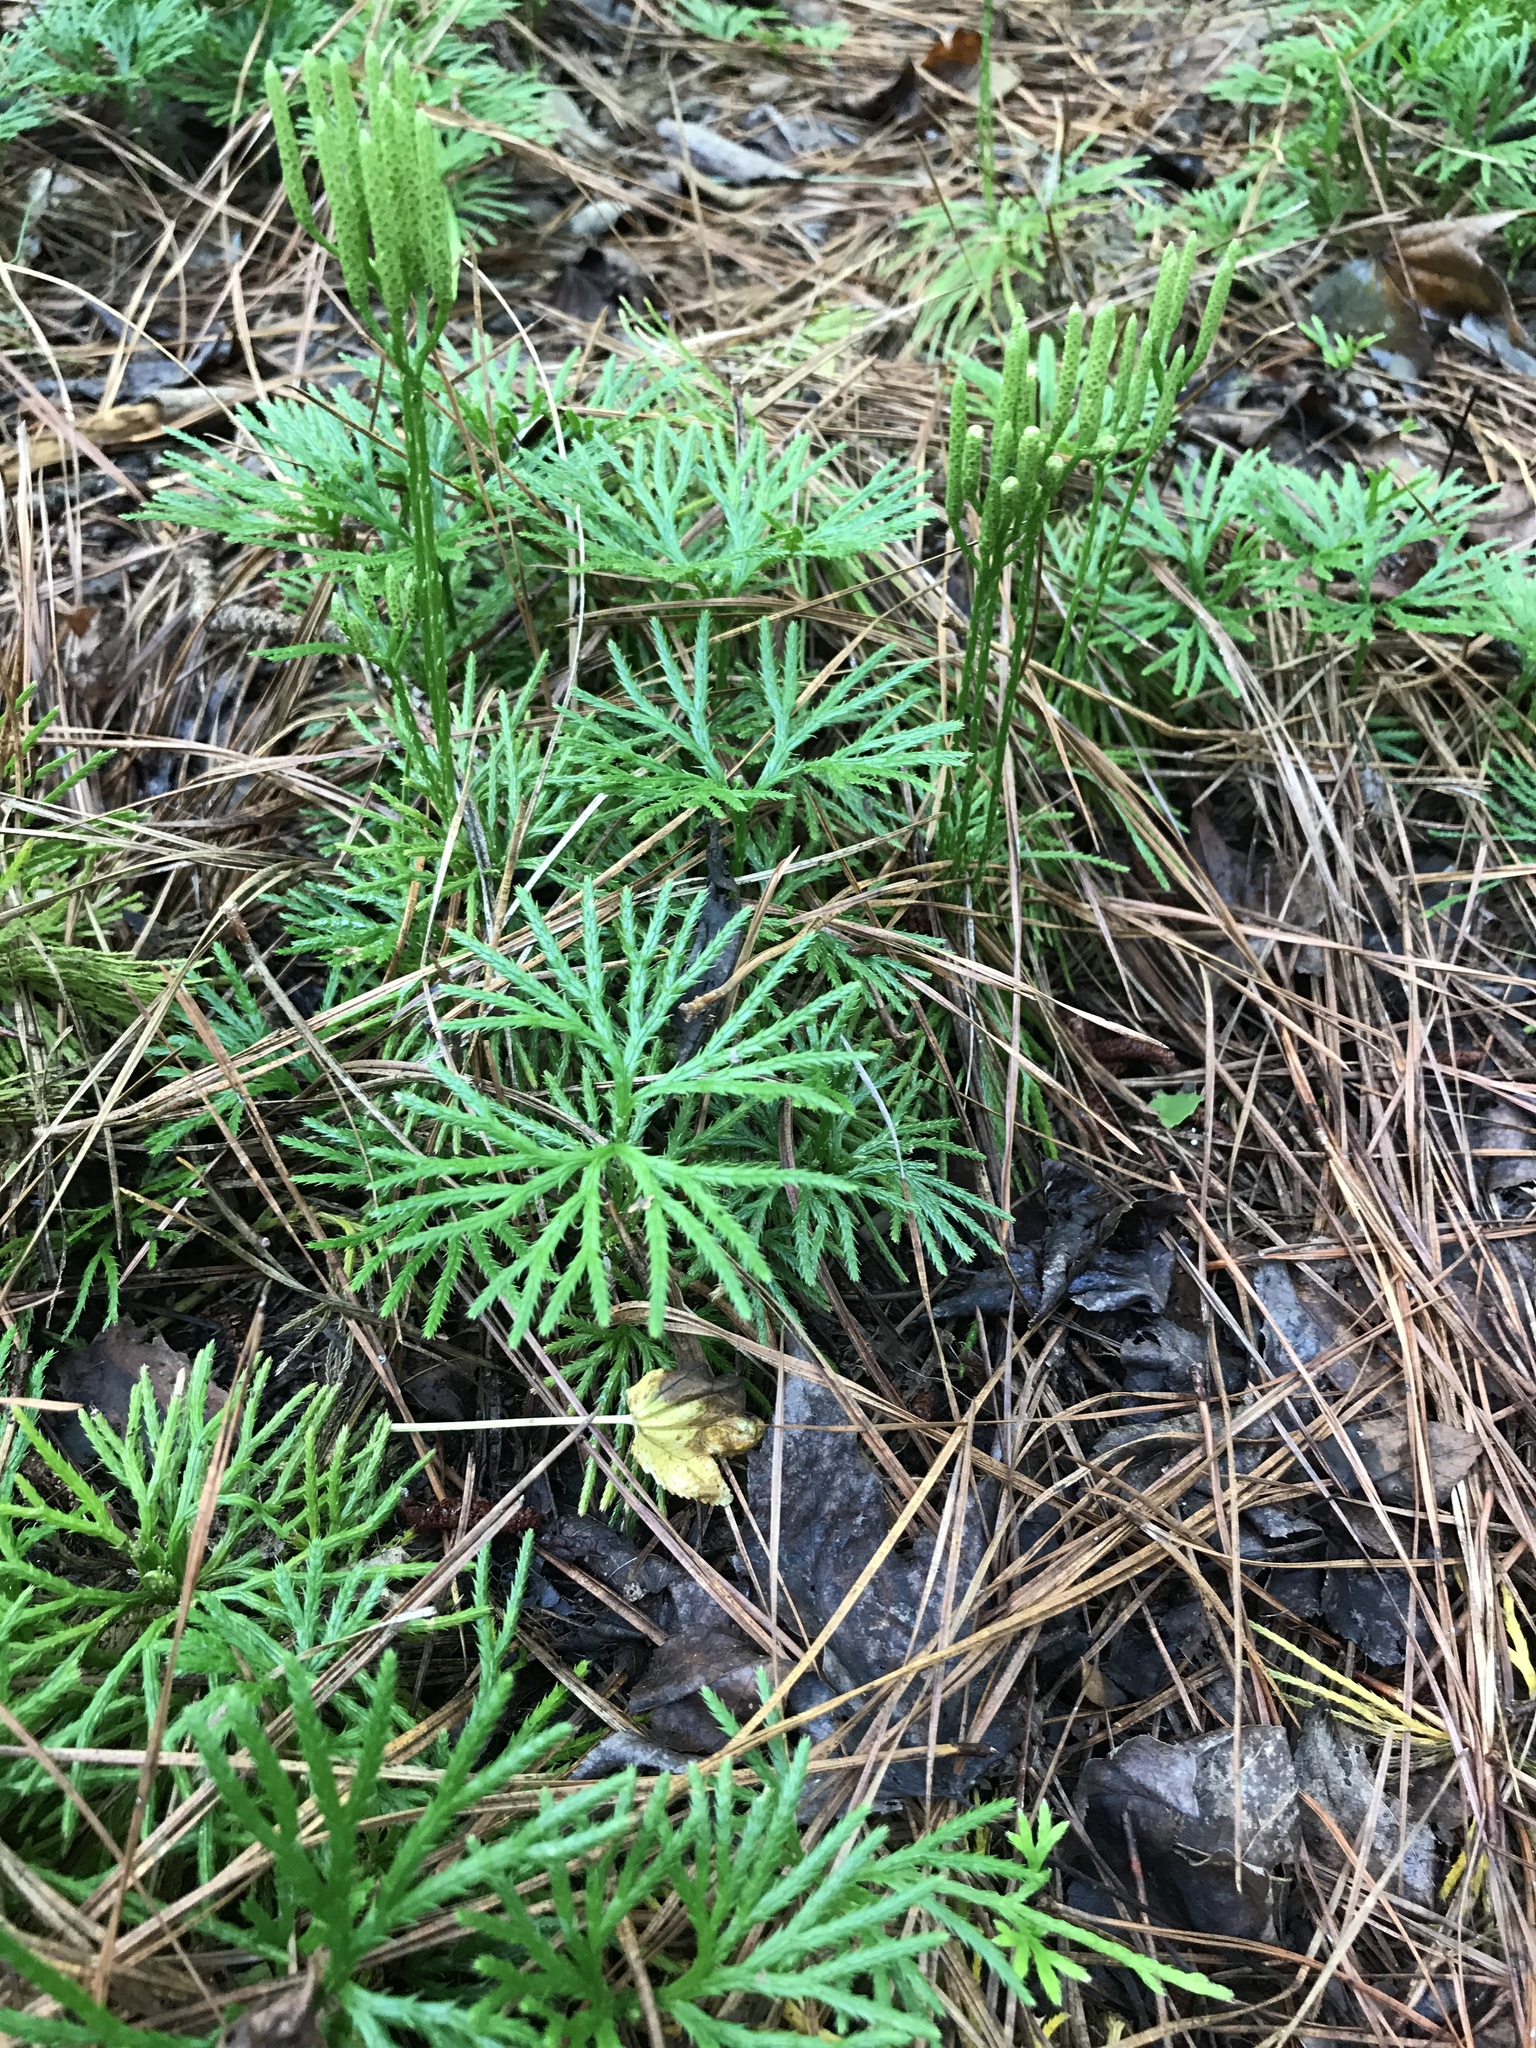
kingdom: Plantae
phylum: Tracheophyta
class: Lycopodiopsida
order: Lycopodiales
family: Lycopodiaceae
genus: Diphasiastrum
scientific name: Diphasiastrum digitatum
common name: Southern running-pine
